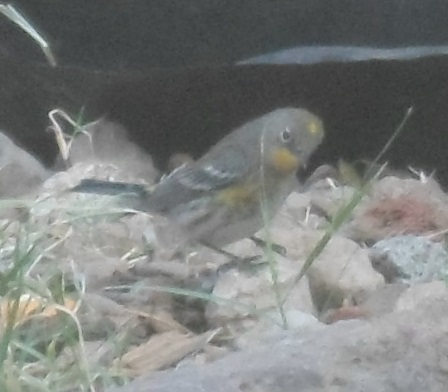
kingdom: Animalia
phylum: Chordata
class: Aves
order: Passeriformes
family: Parulidae
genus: Setophaga
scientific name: Setophaga auduboni
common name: Audubon's warbler
